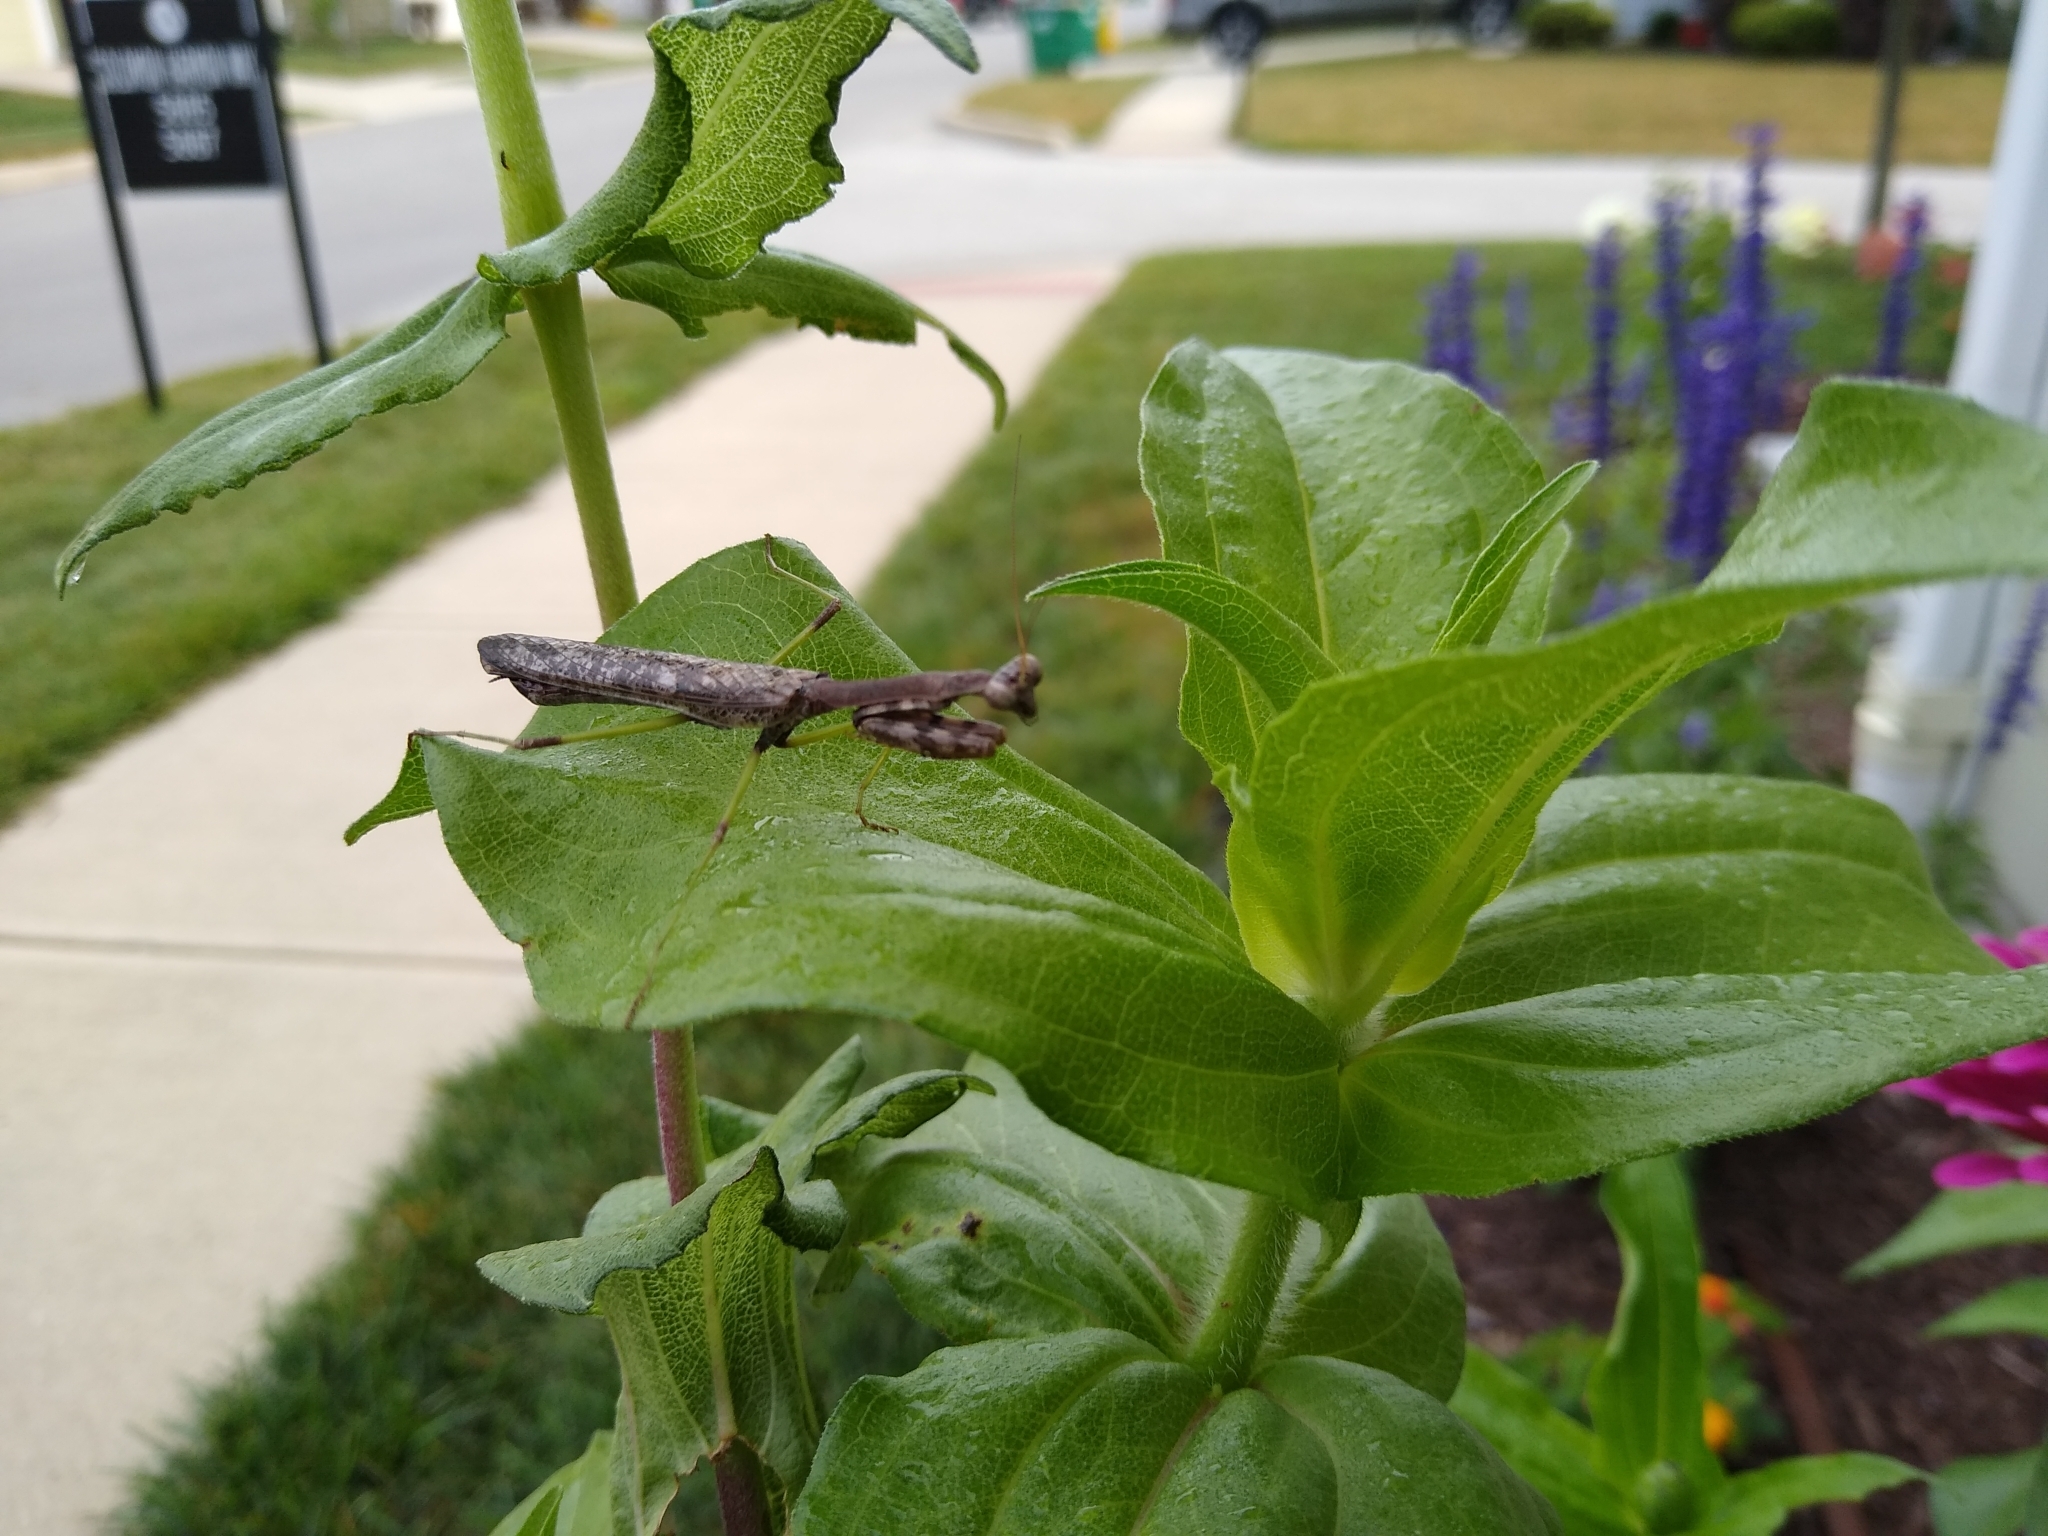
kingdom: Animalia
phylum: Arthropoda
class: Insecta
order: Mantodea
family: Mantidae
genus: Stagmomantis
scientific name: Stagmomantis carolina
